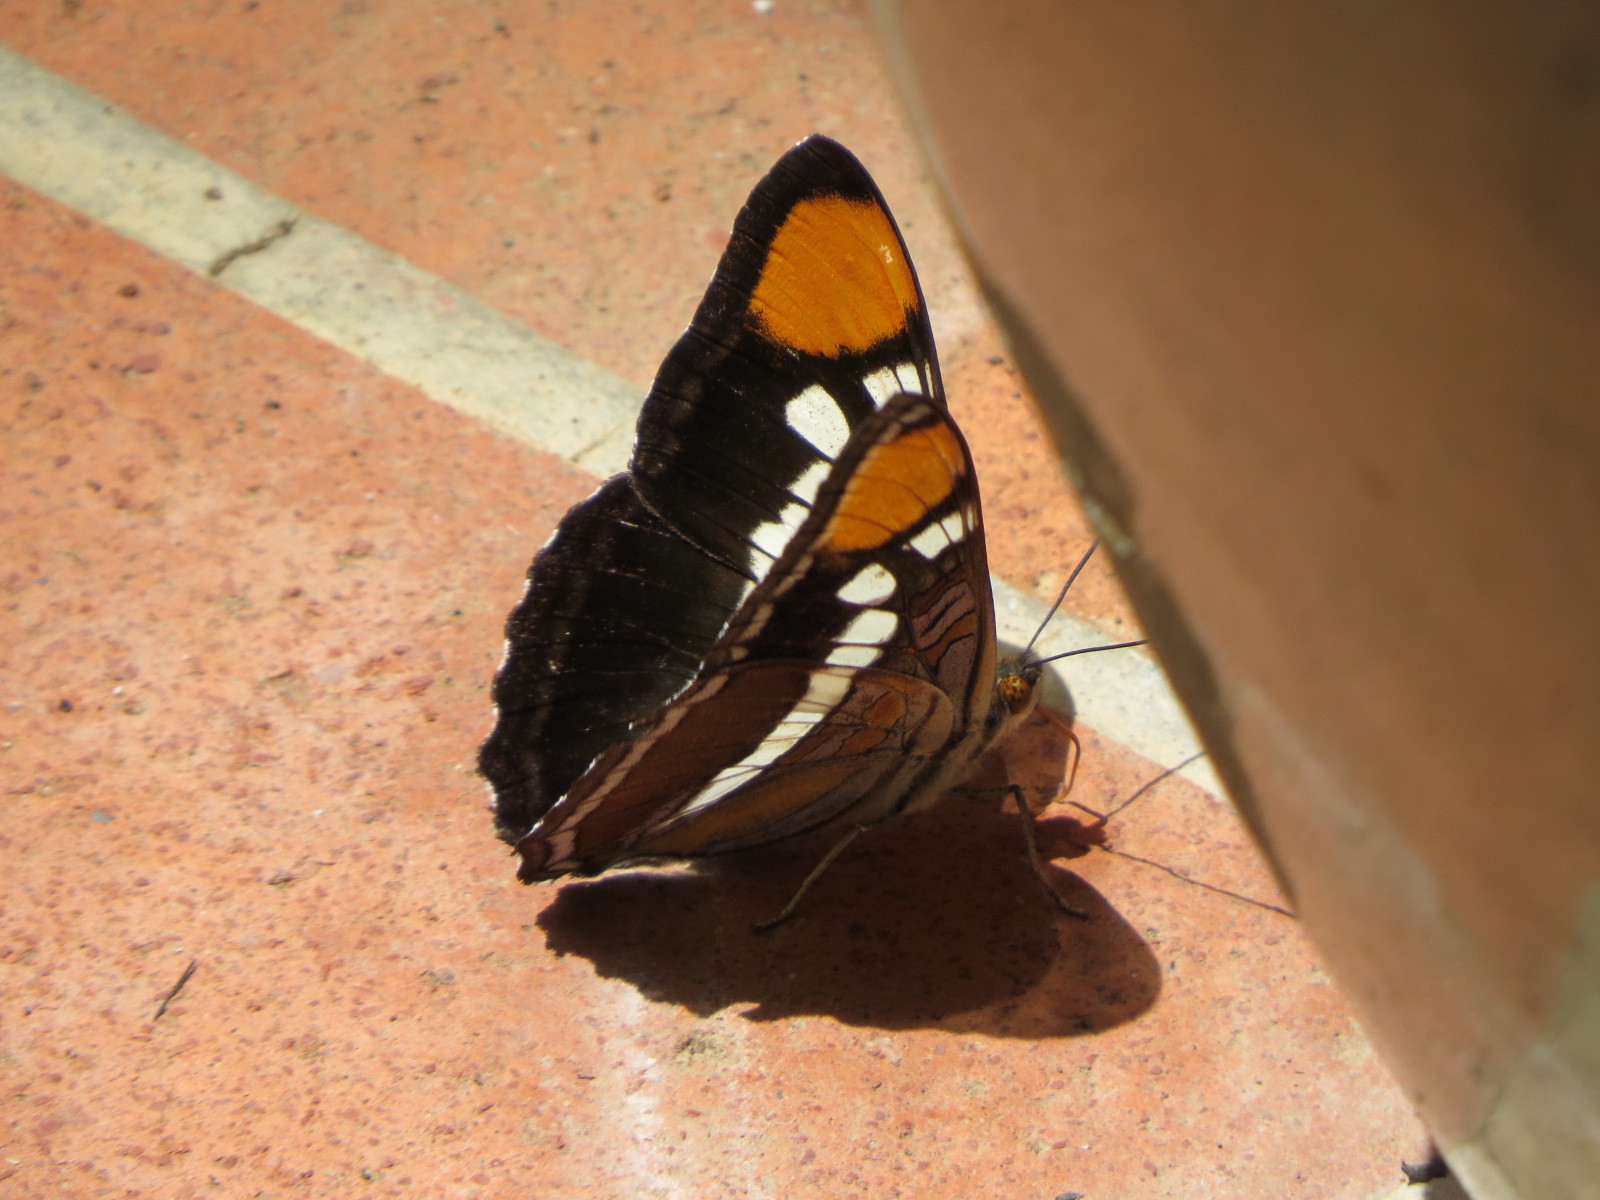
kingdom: Animalia
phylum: Arthropoda
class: Insecta
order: Lepidoptera
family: Nymphalidae
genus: Limenitis
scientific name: Limenitis bredowii
